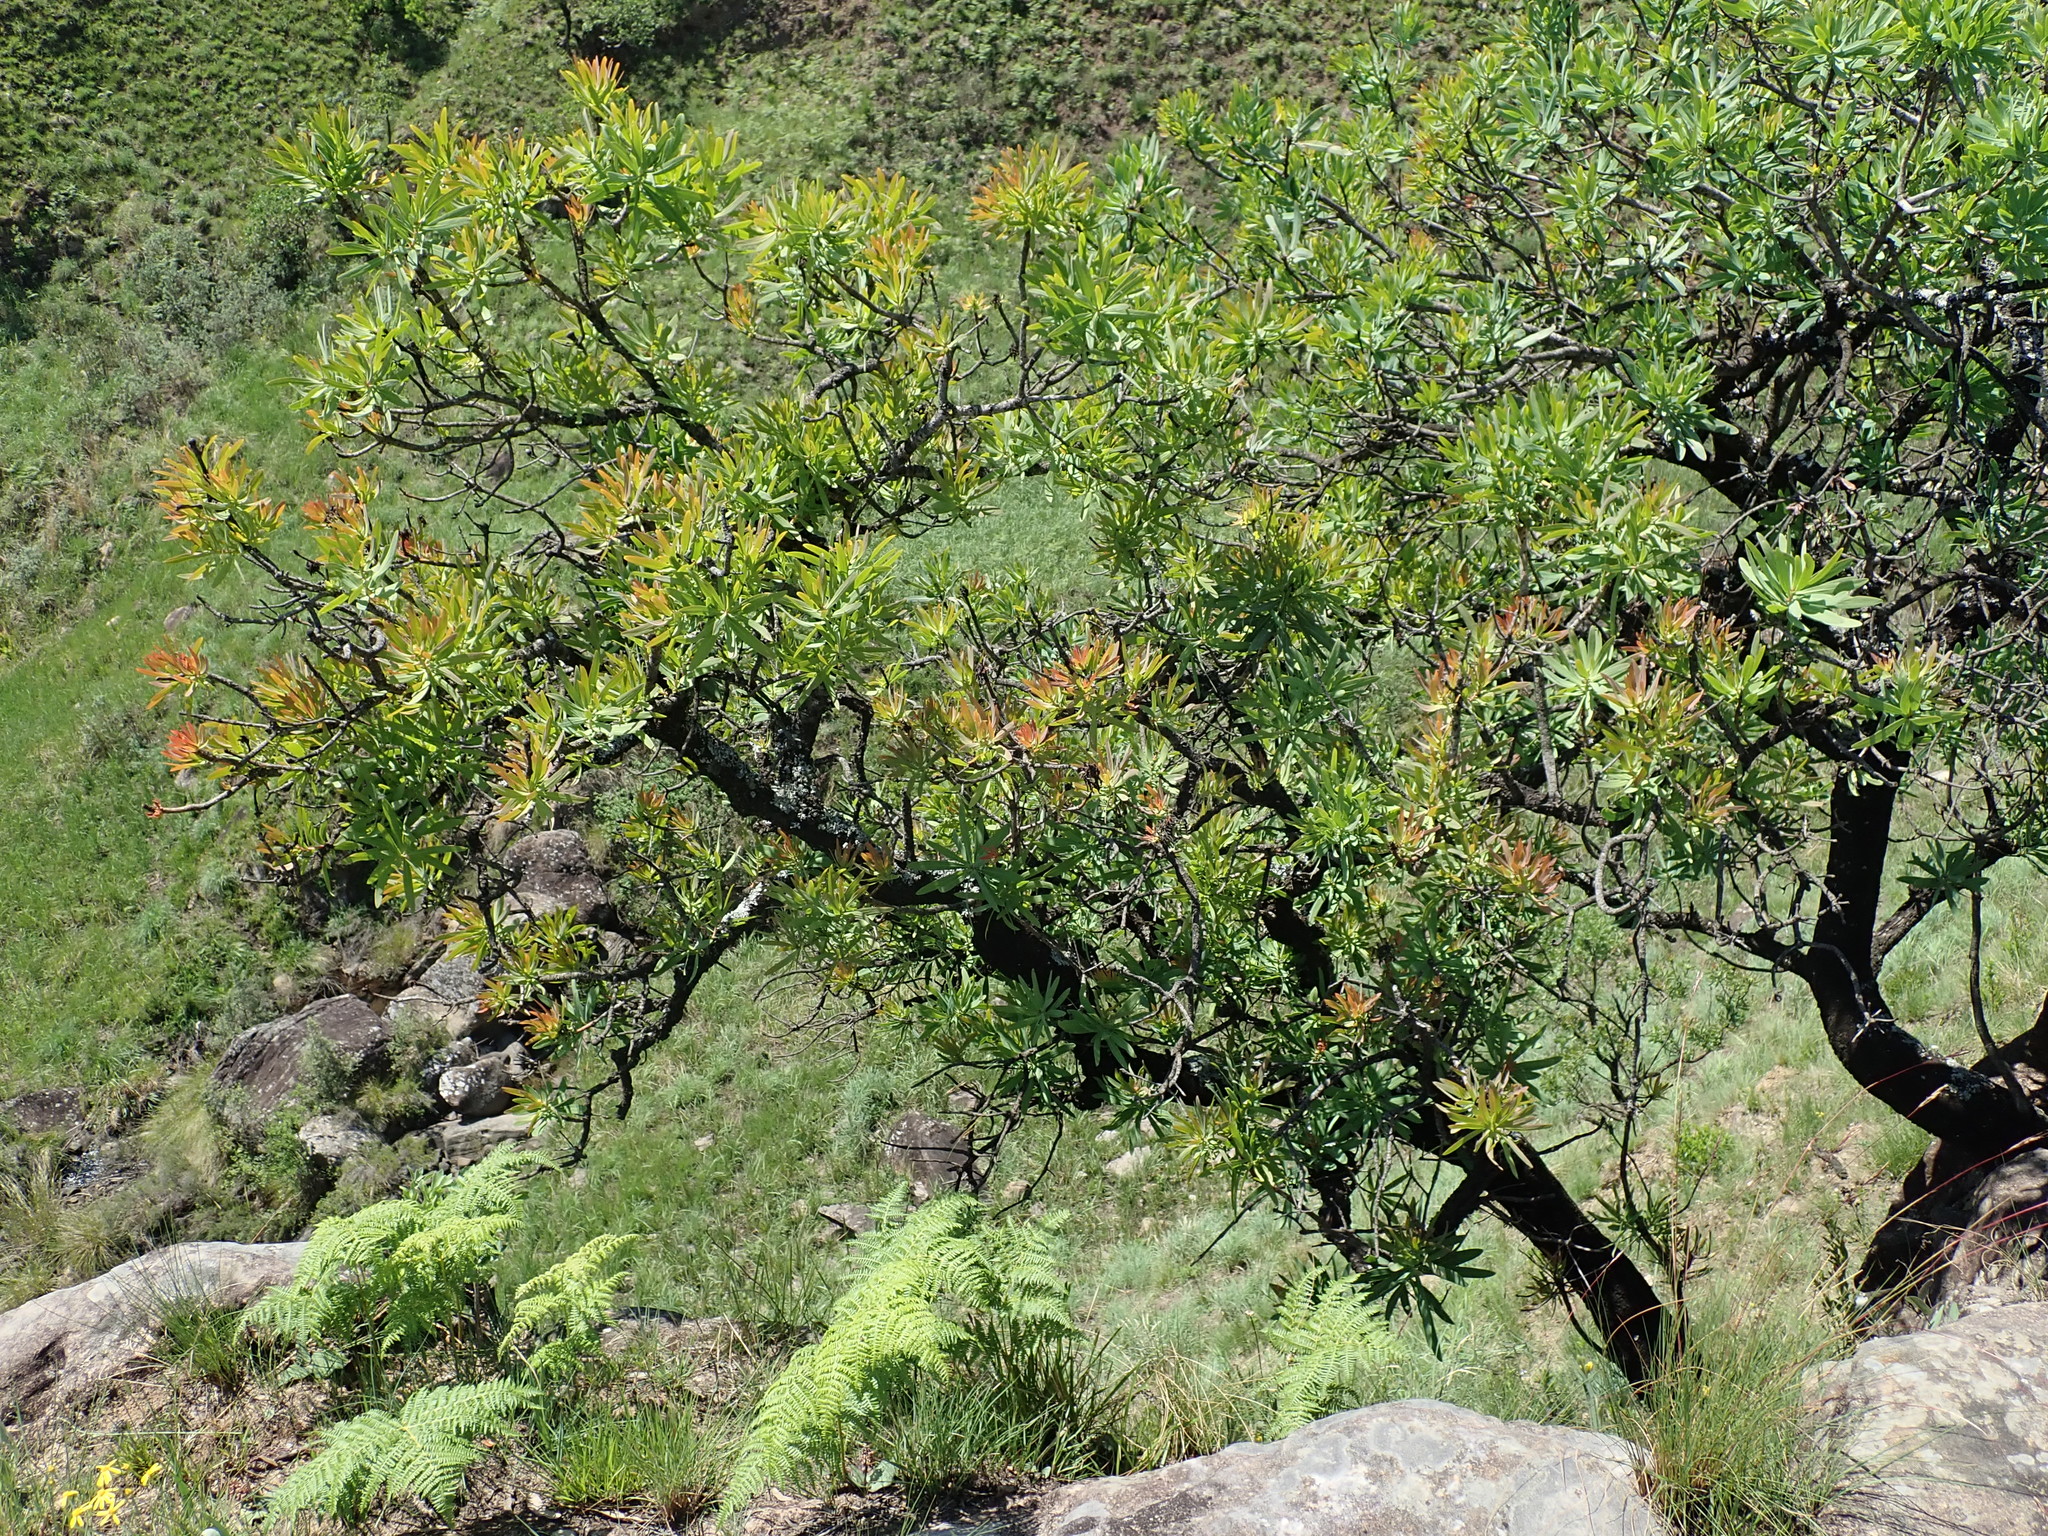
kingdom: Plantae
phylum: Tracheophyta
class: Magnoliopsida
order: Proteales
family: Proteaceae
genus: Protea
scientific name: Protea caffra
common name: Common sugarbush
